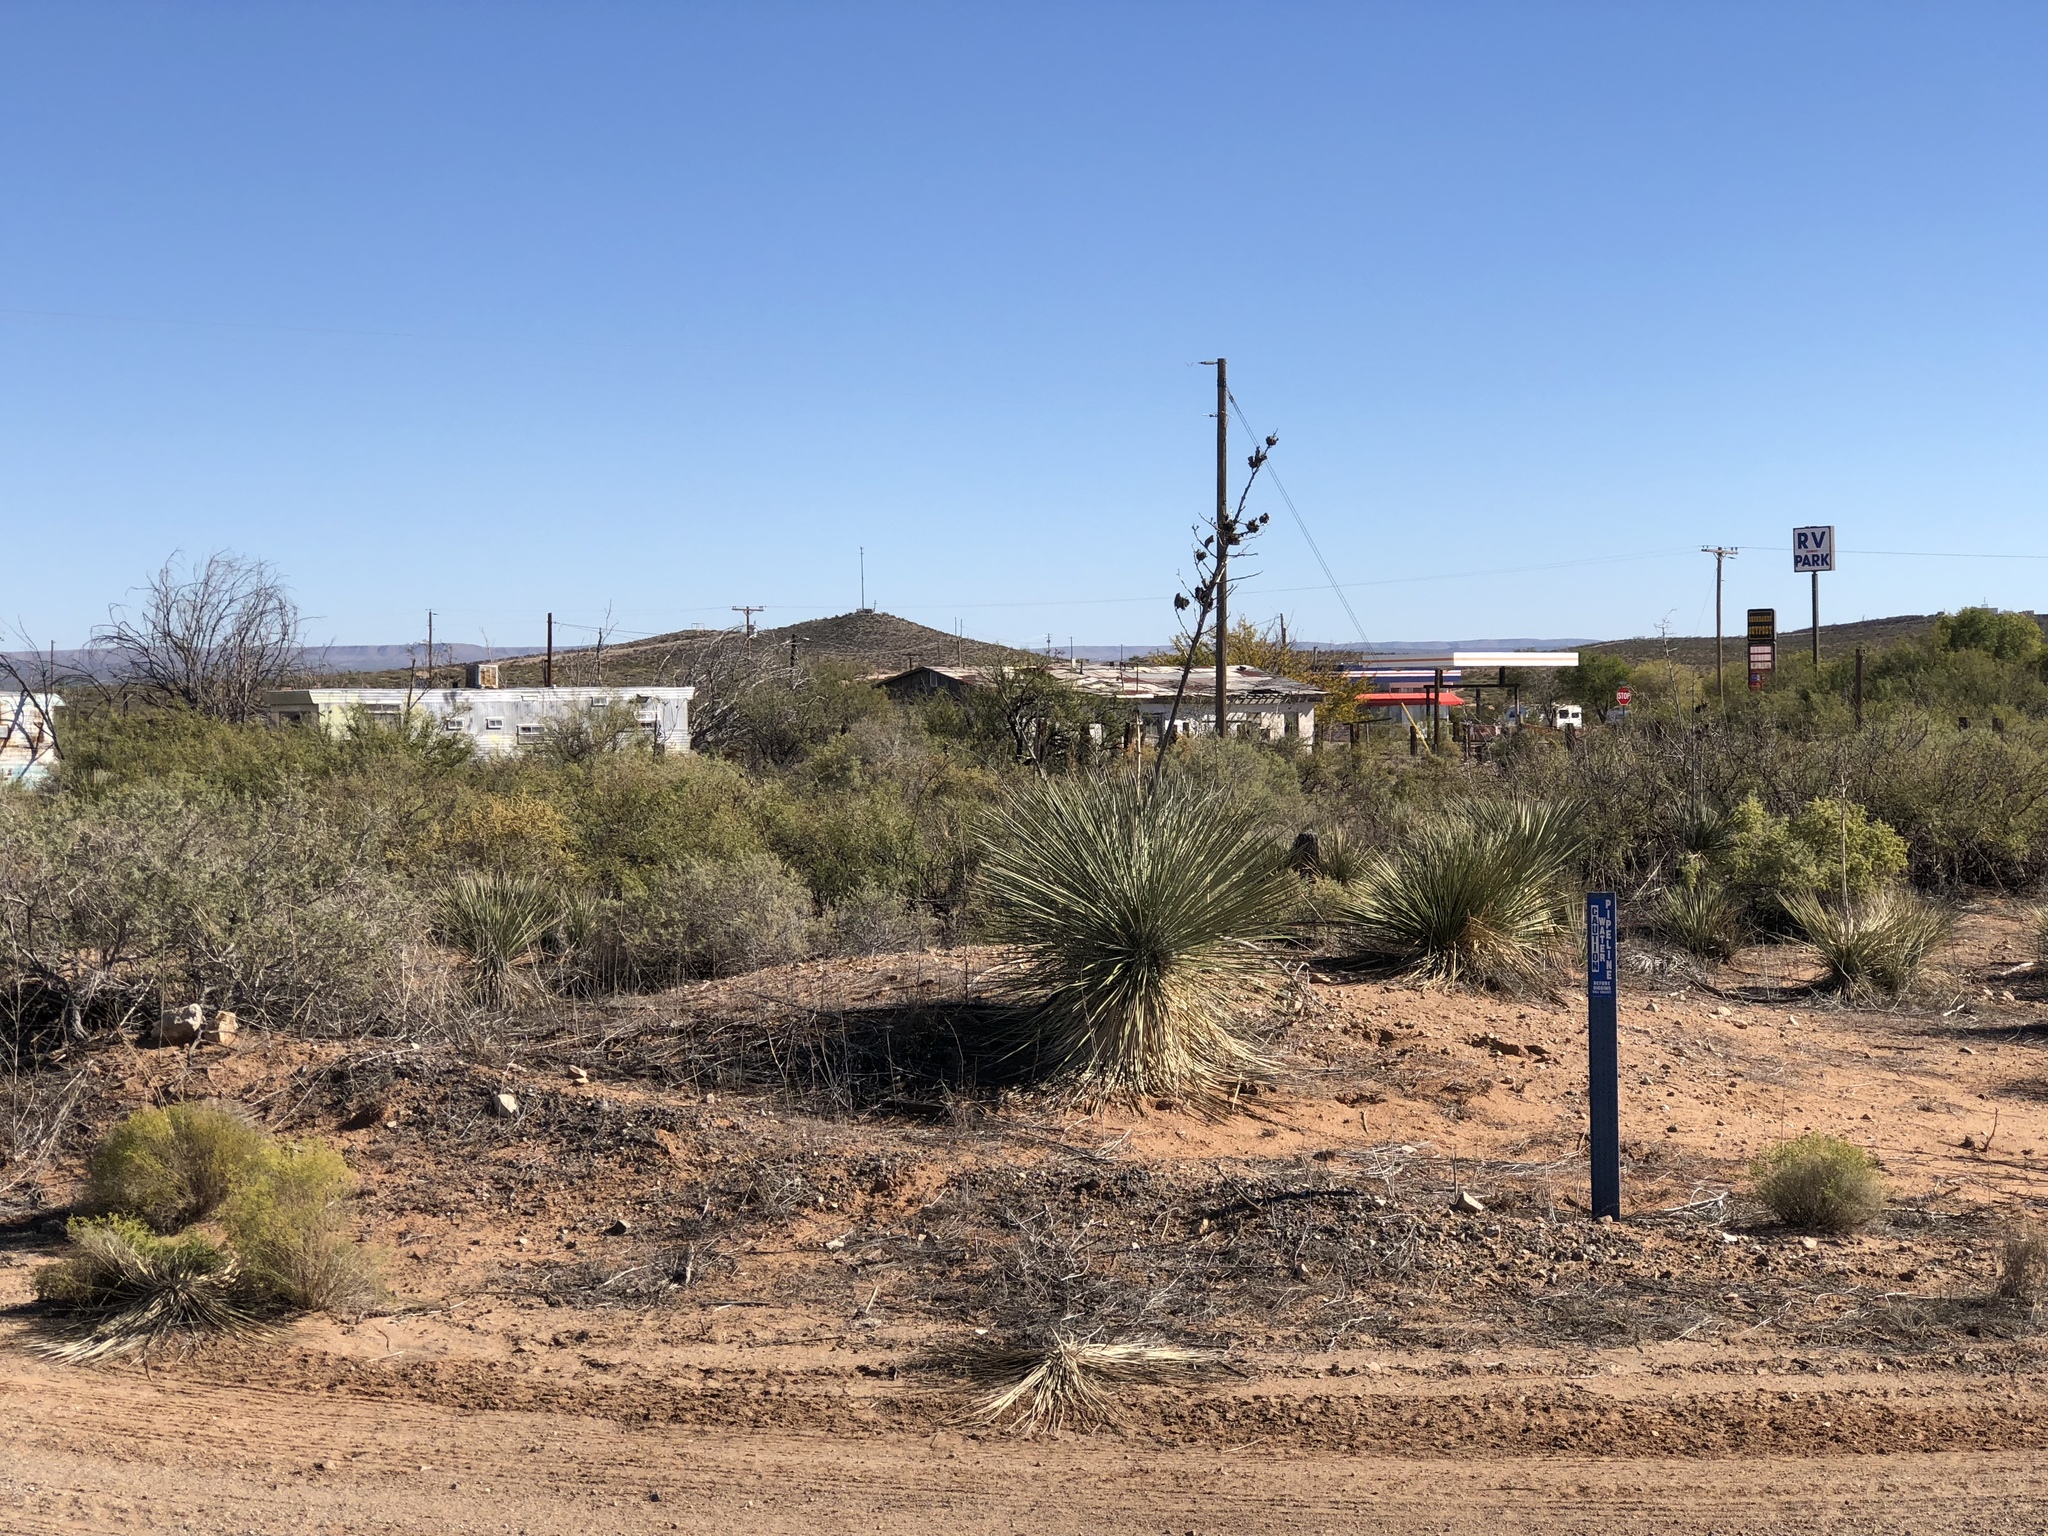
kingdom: Plantae
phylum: Tracheophyta
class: Liliopsida
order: Asparagales
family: Asparagaceae
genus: Yucca
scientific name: Yucca elata
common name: Palmella
